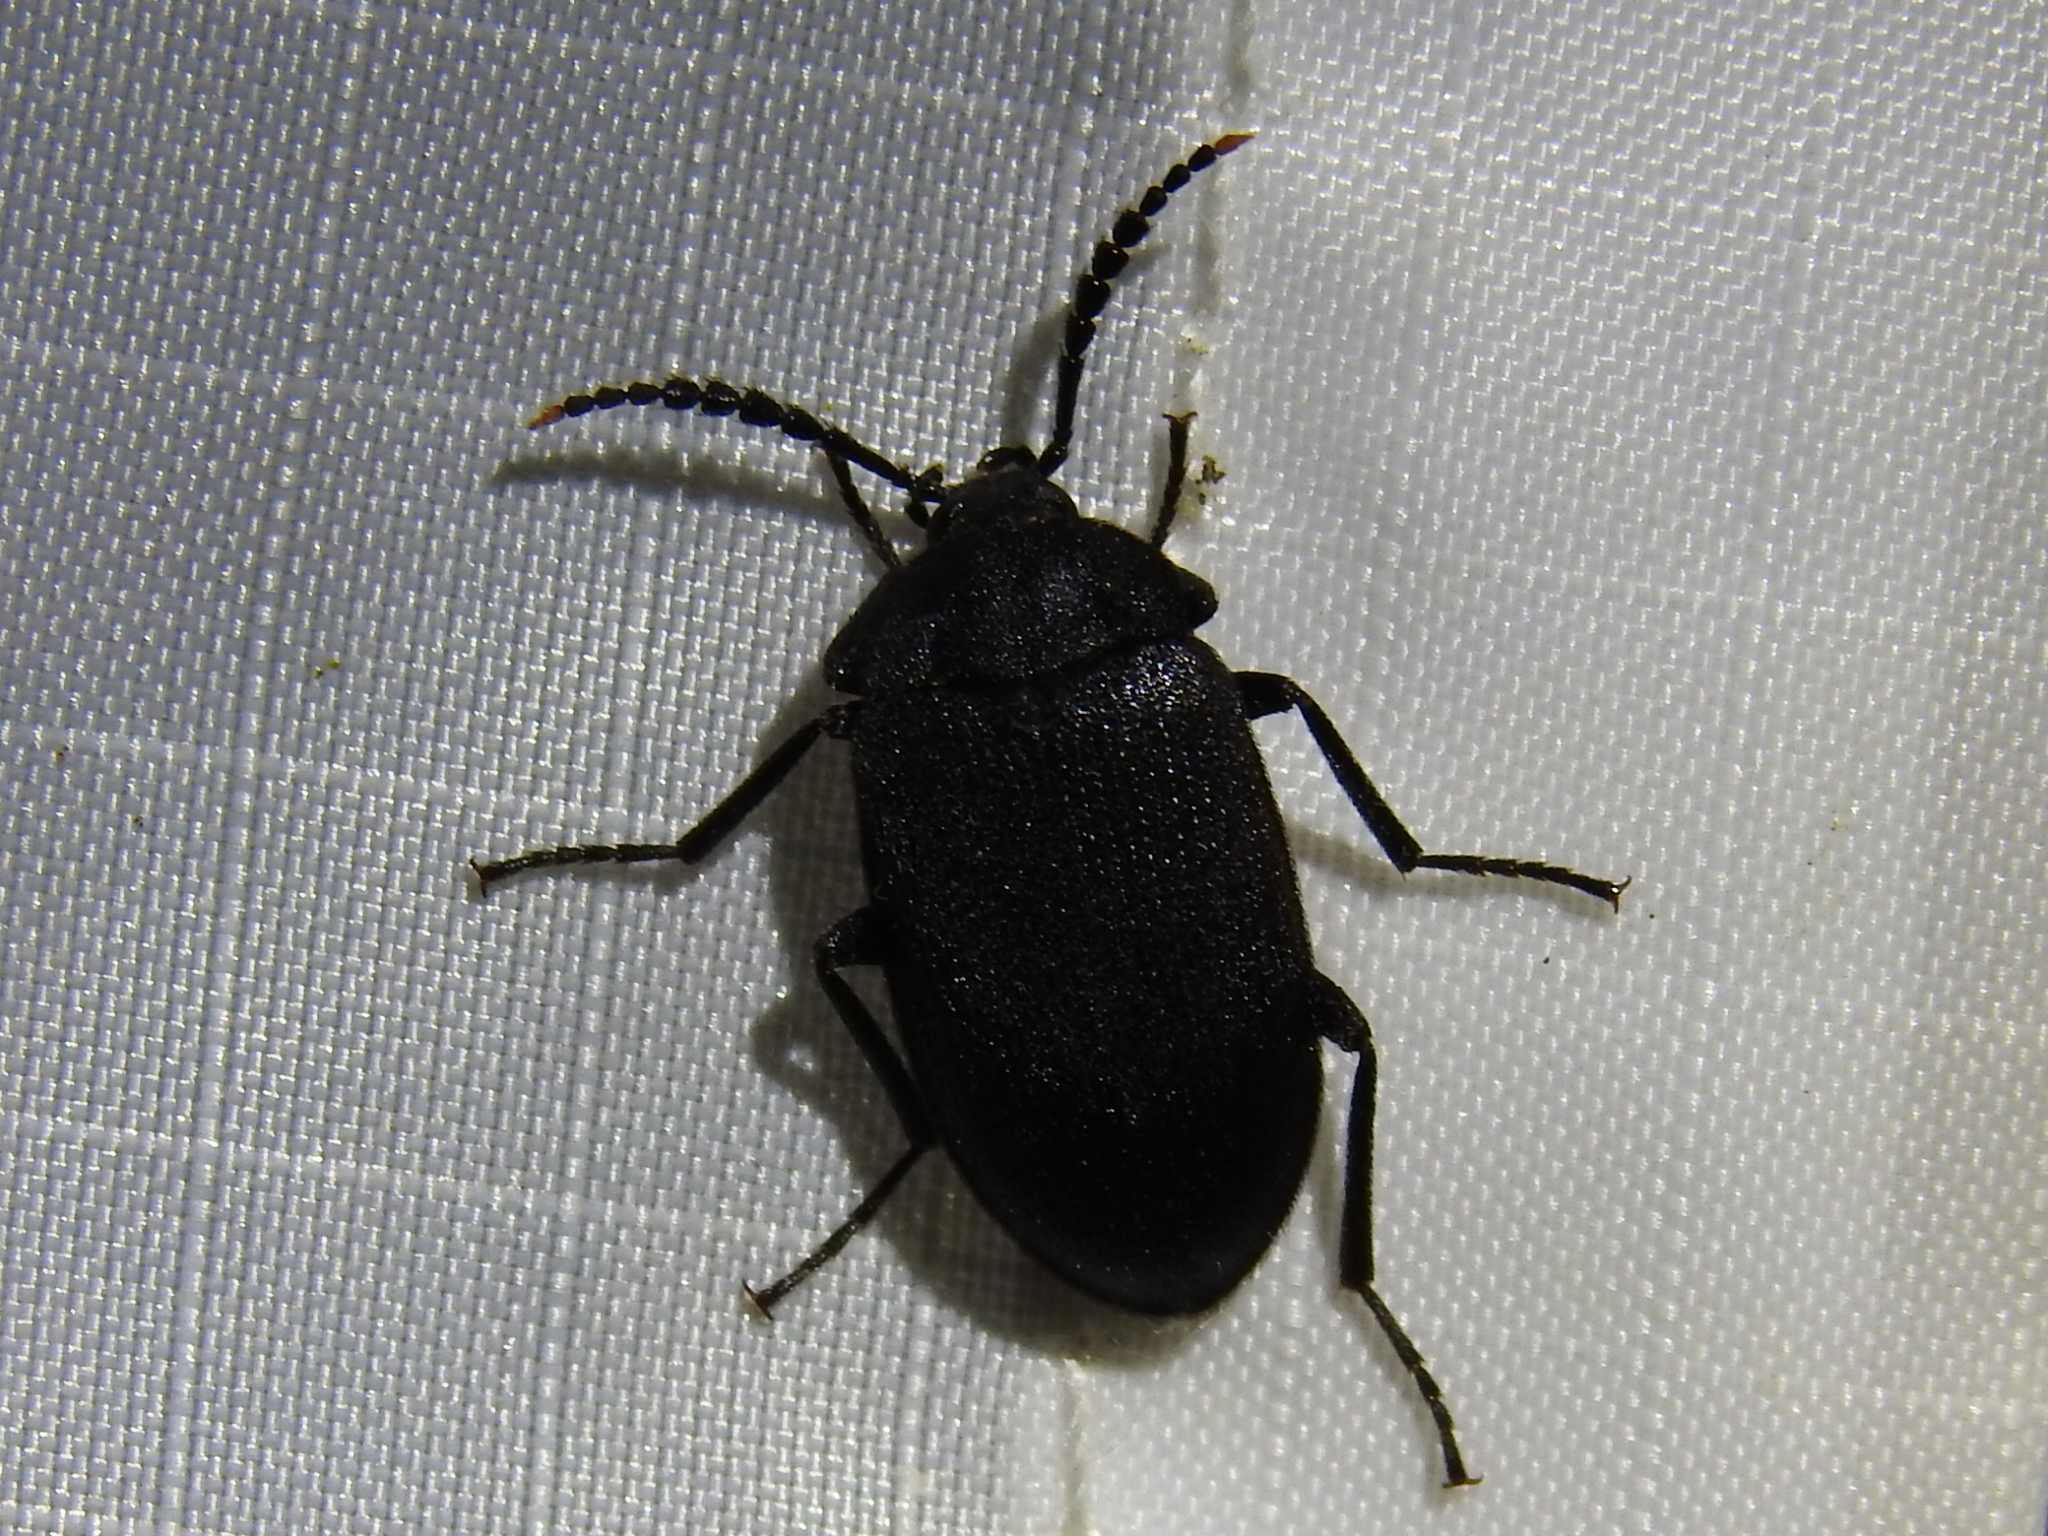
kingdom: Animalia
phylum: Arthropoda
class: Insecta
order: Coleoptera
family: Tetratomidae
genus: Penthe
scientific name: Penthe pimelia
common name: Velvety bark beetle
